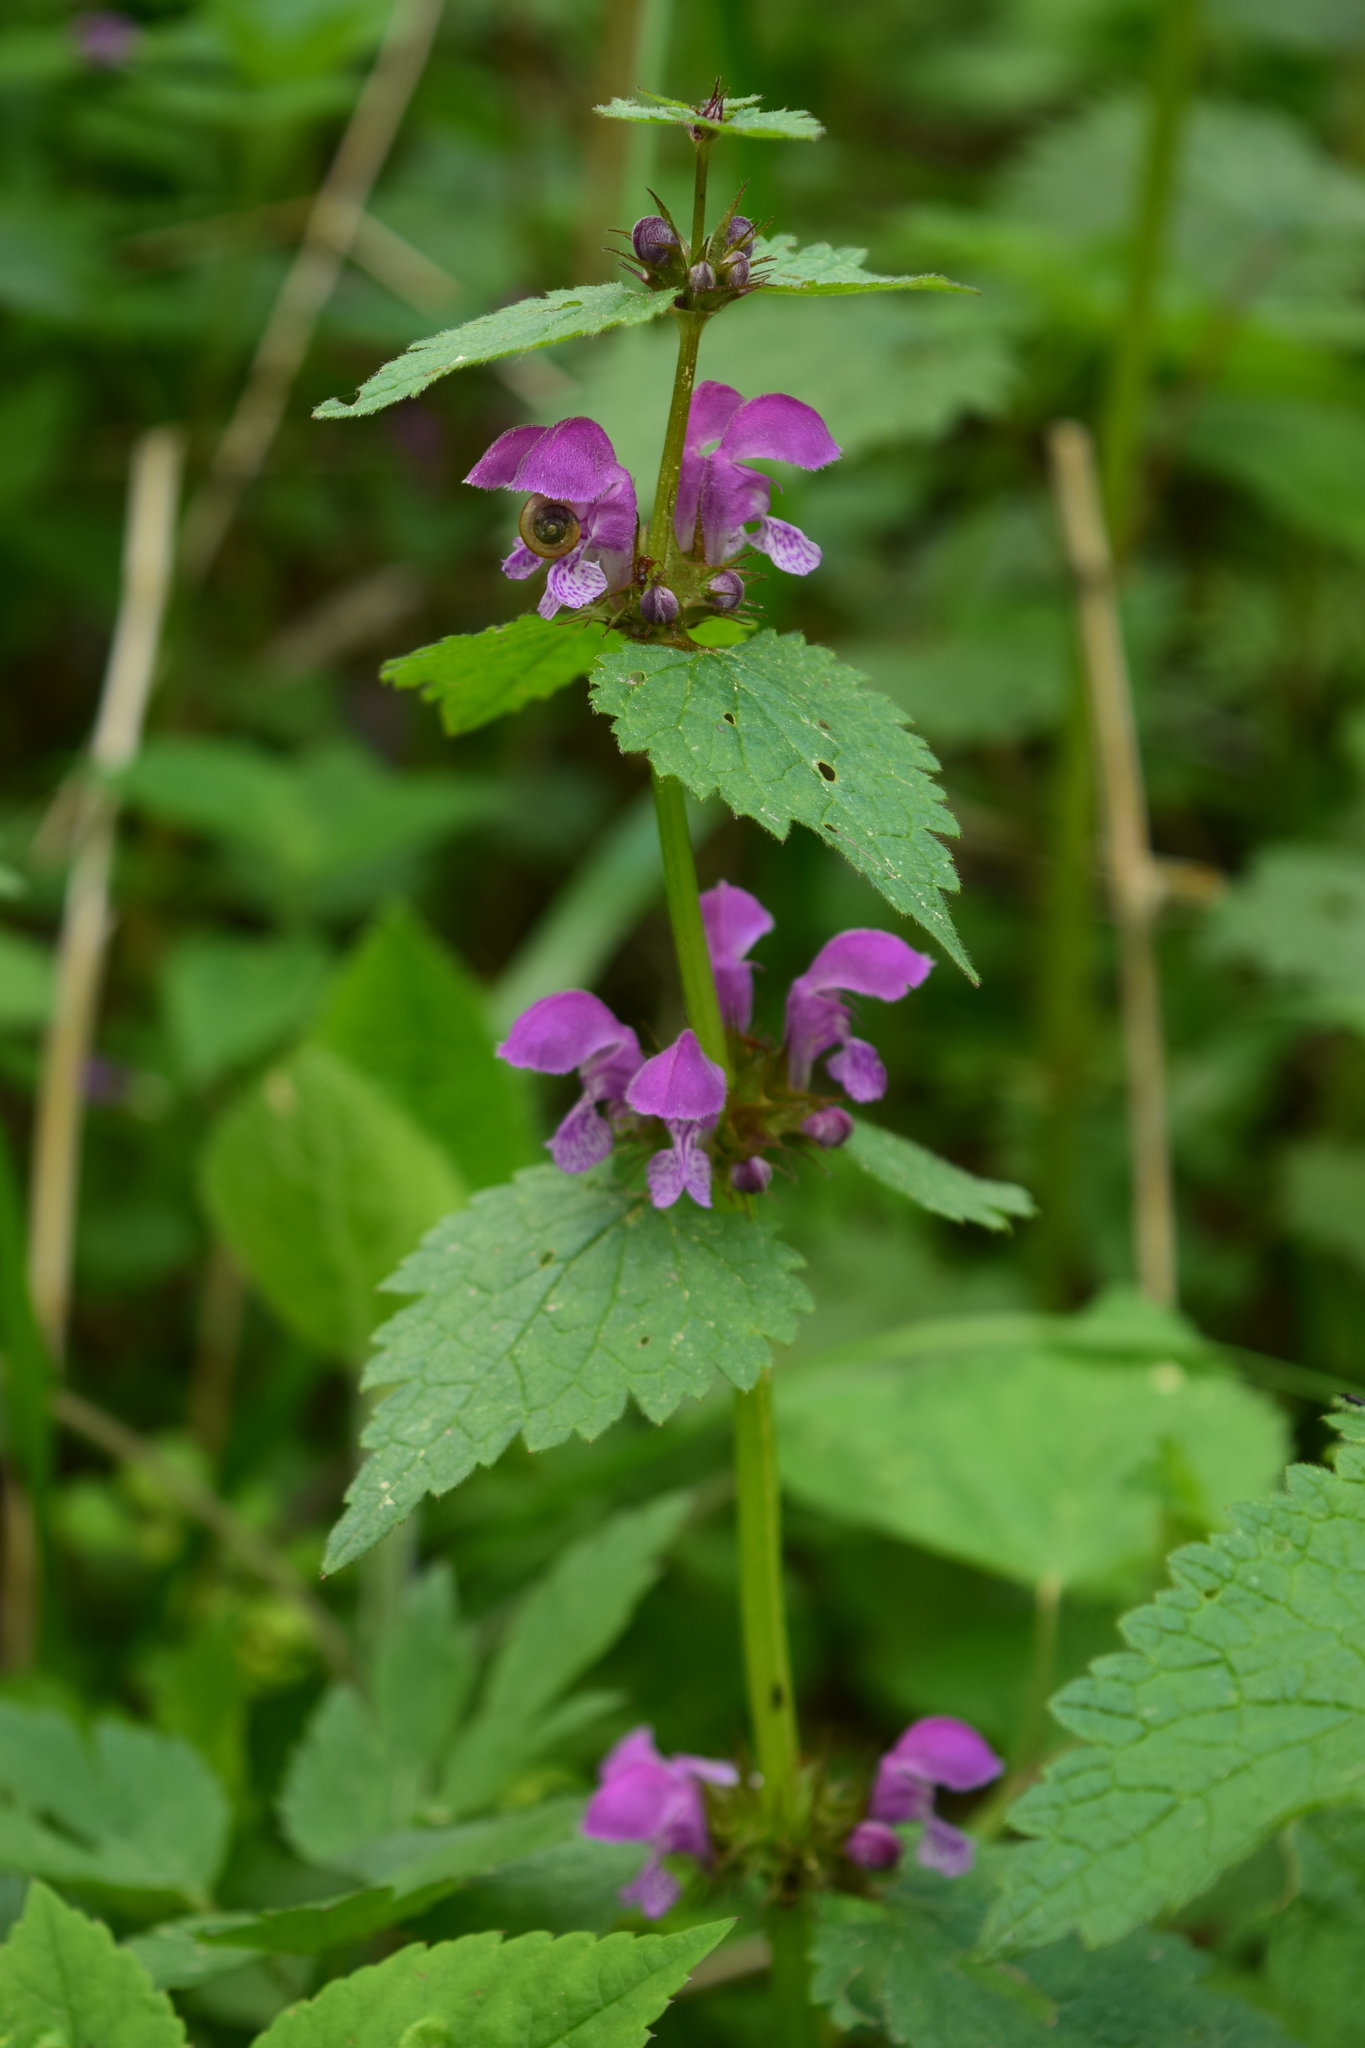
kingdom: Plantae
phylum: Tracheophyta
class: Magnoliopsida
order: Lamiales
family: Lamiaceae
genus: Lamium
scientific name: Lamium maculatum
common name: Spotted dead-nettle
